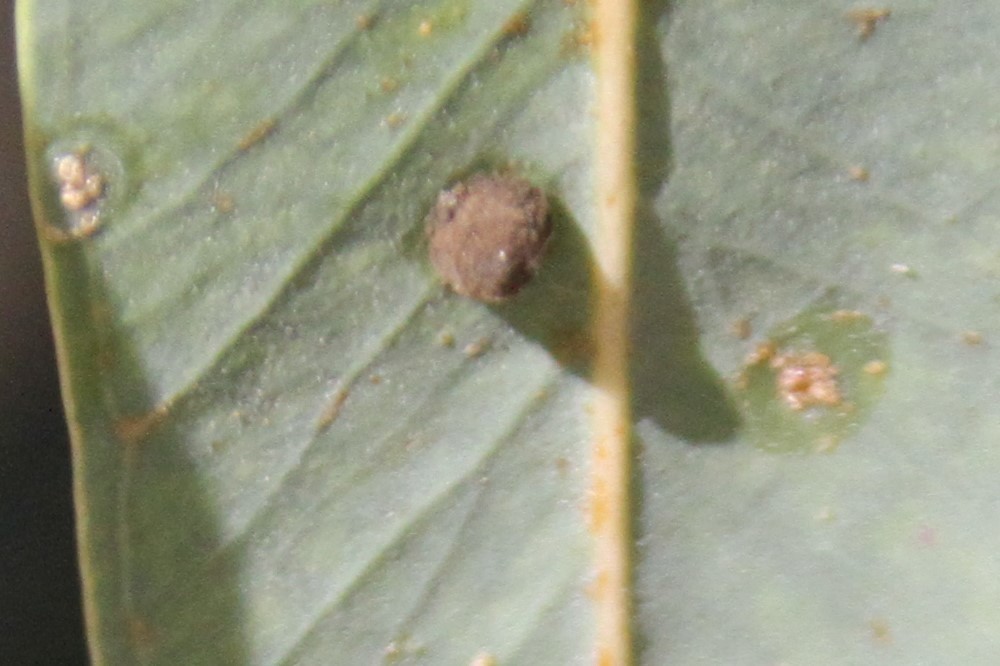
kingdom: Animalia
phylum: Arthropoda
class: Insecta
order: Hemiptera
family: Aphalaridae
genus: Glycaspis
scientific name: Glycaspis brimblecombei
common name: Red gum lerp psyllid
